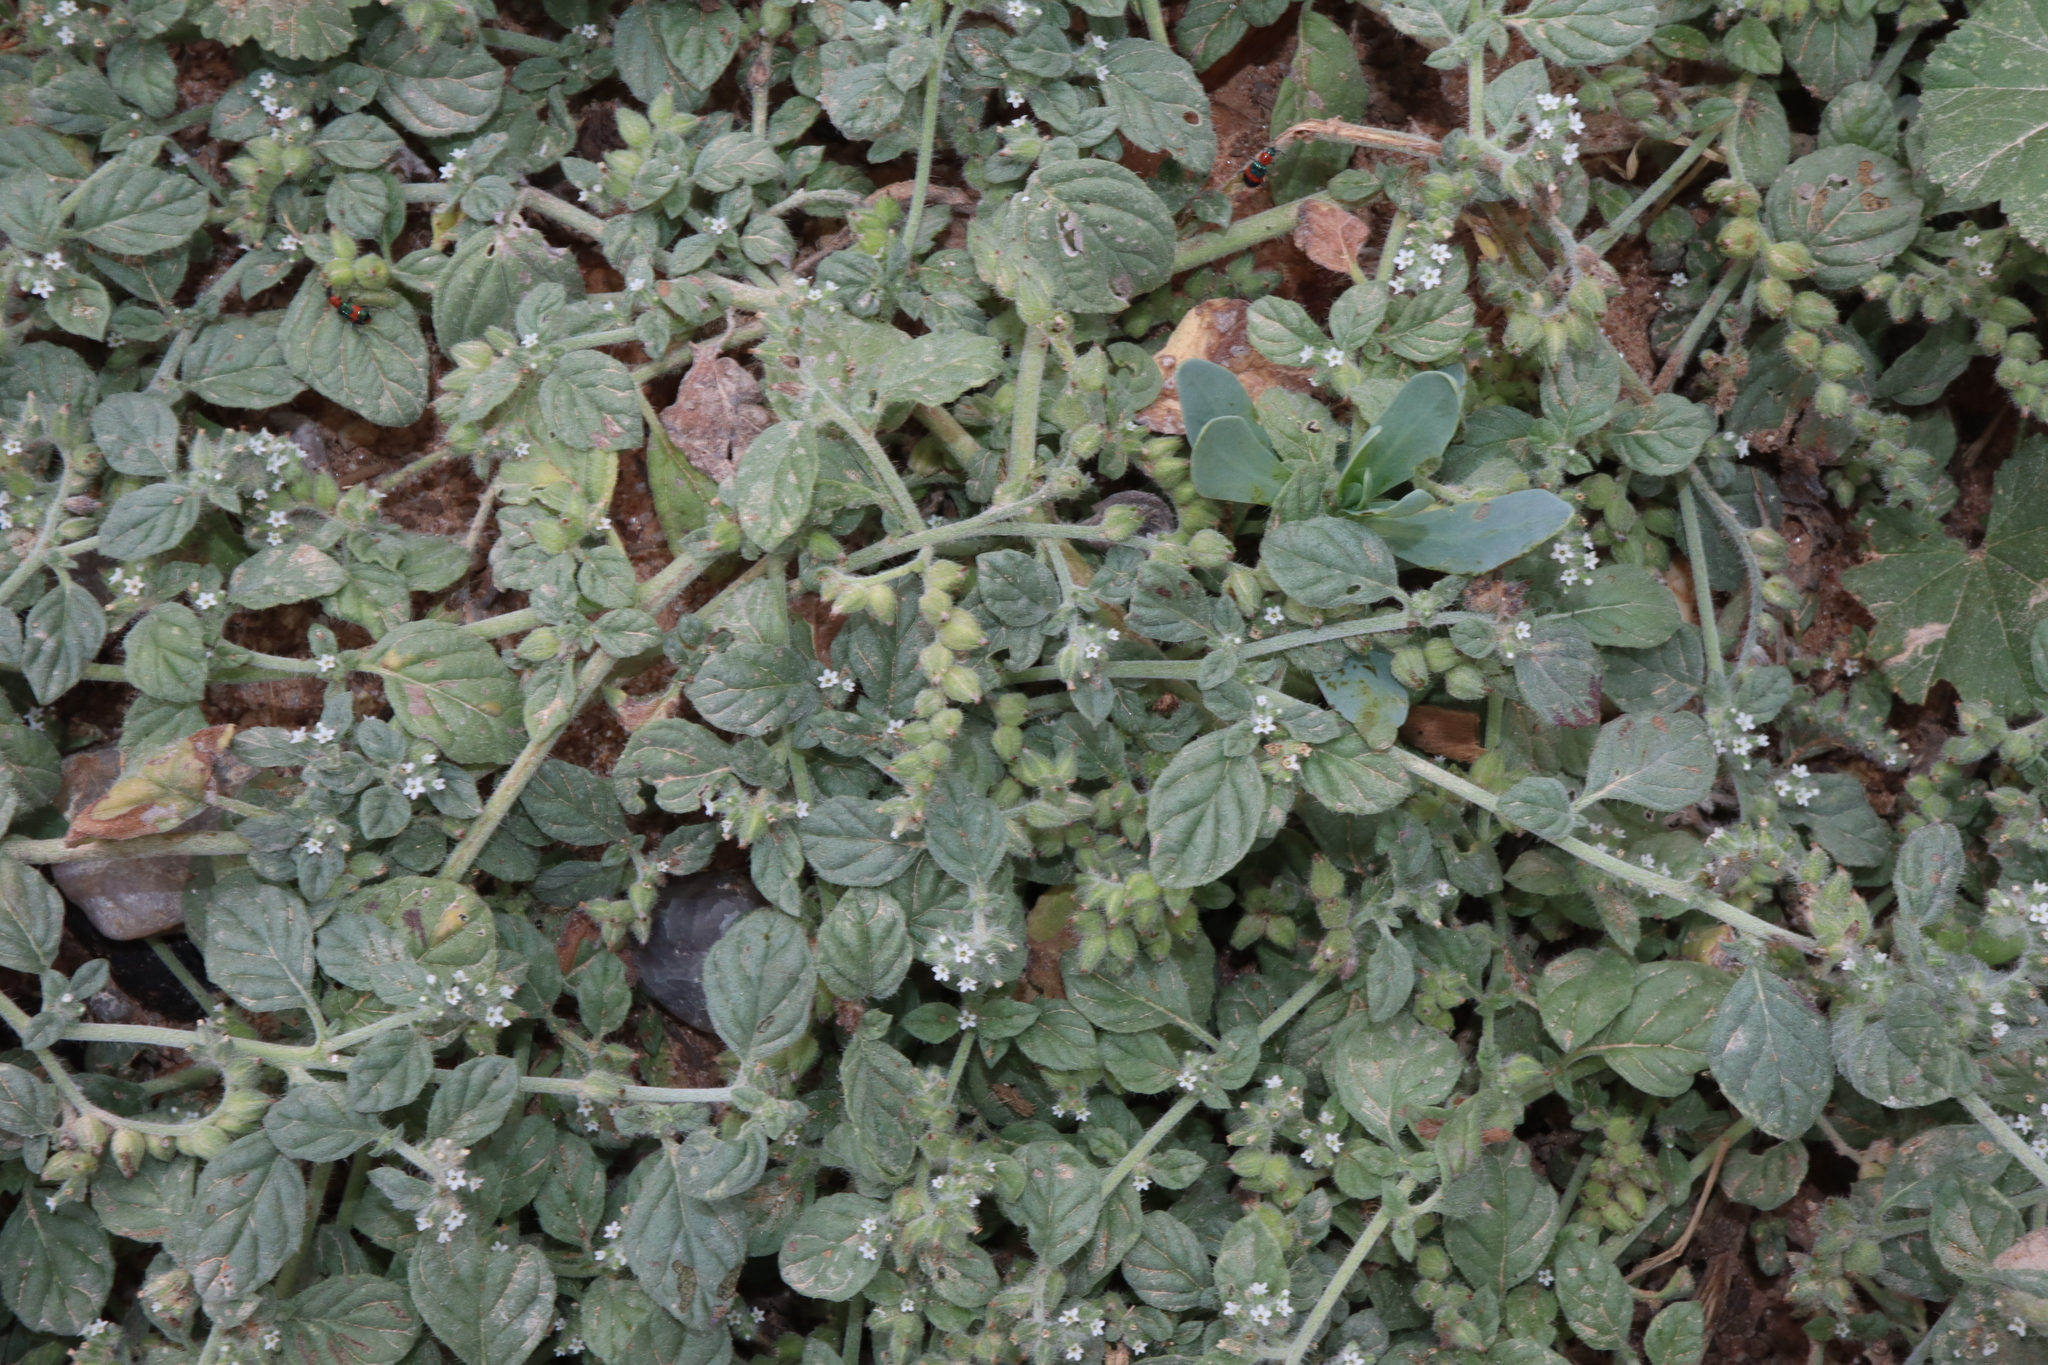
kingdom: Plantae
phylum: Tracheophyta
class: Magnoliopsida
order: Boraginales
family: Heliotropiaceae
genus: Heliotropium
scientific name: Heliotropium supinum
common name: Dwarf heliotrope
